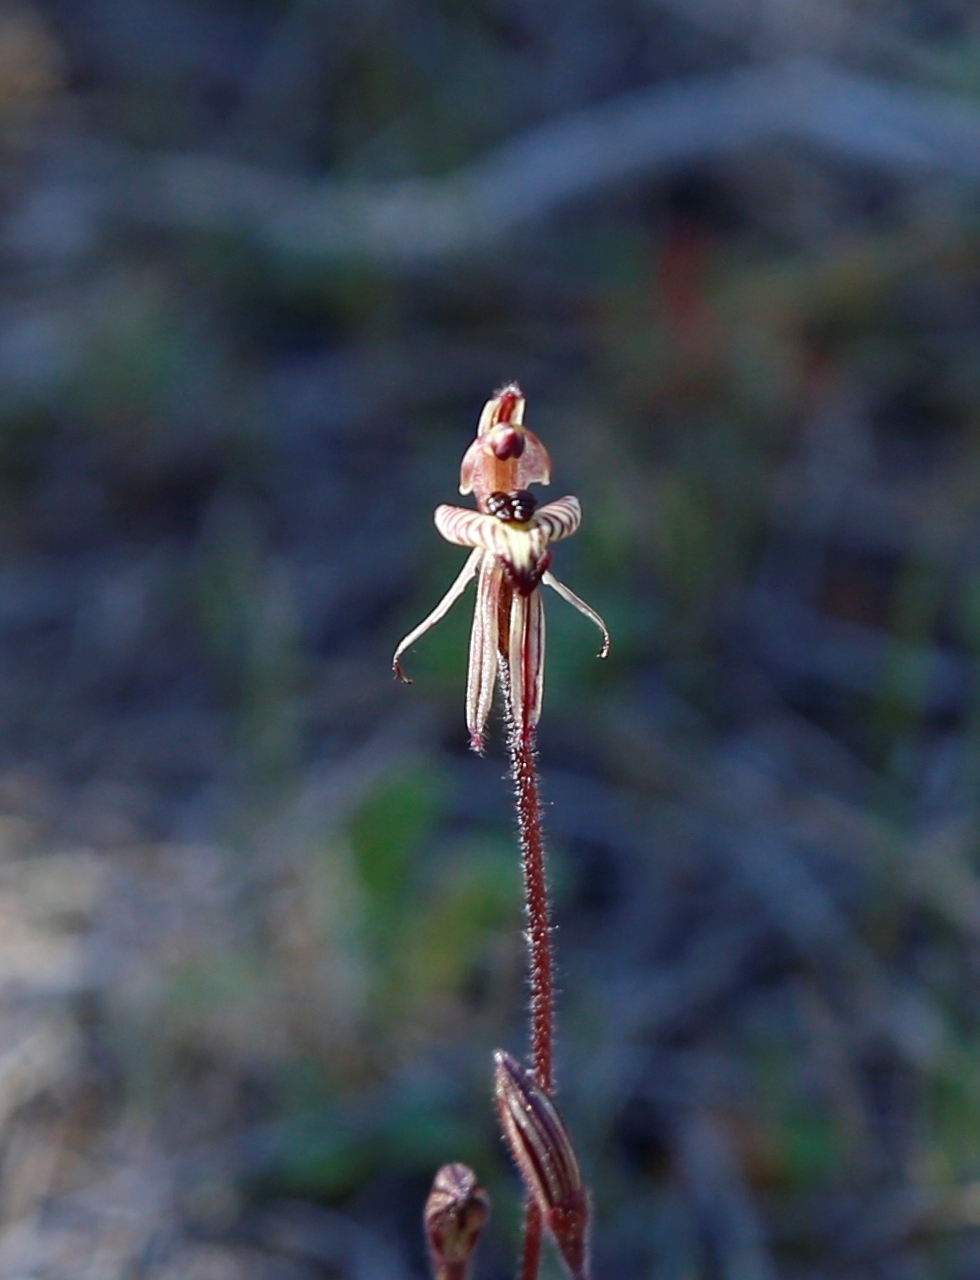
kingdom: Plantae
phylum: Tracheophyta
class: Liliopsida
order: Asparagales
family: Orchidaceae
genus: Caladenia
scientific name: Caladenia pachychila
